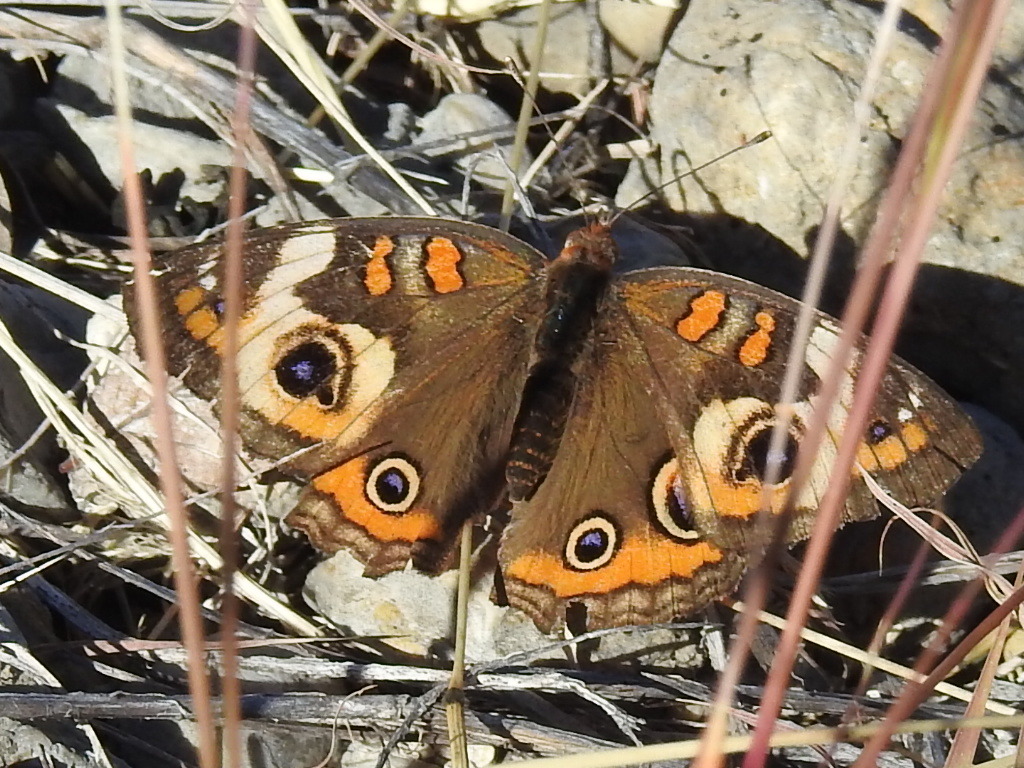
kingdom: Animalia
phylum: Arthropoda
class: Insecta
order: Lepidoptera
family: Nymphalidae
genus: Junonia
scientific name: Junonia coenia
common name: Common buckeye
